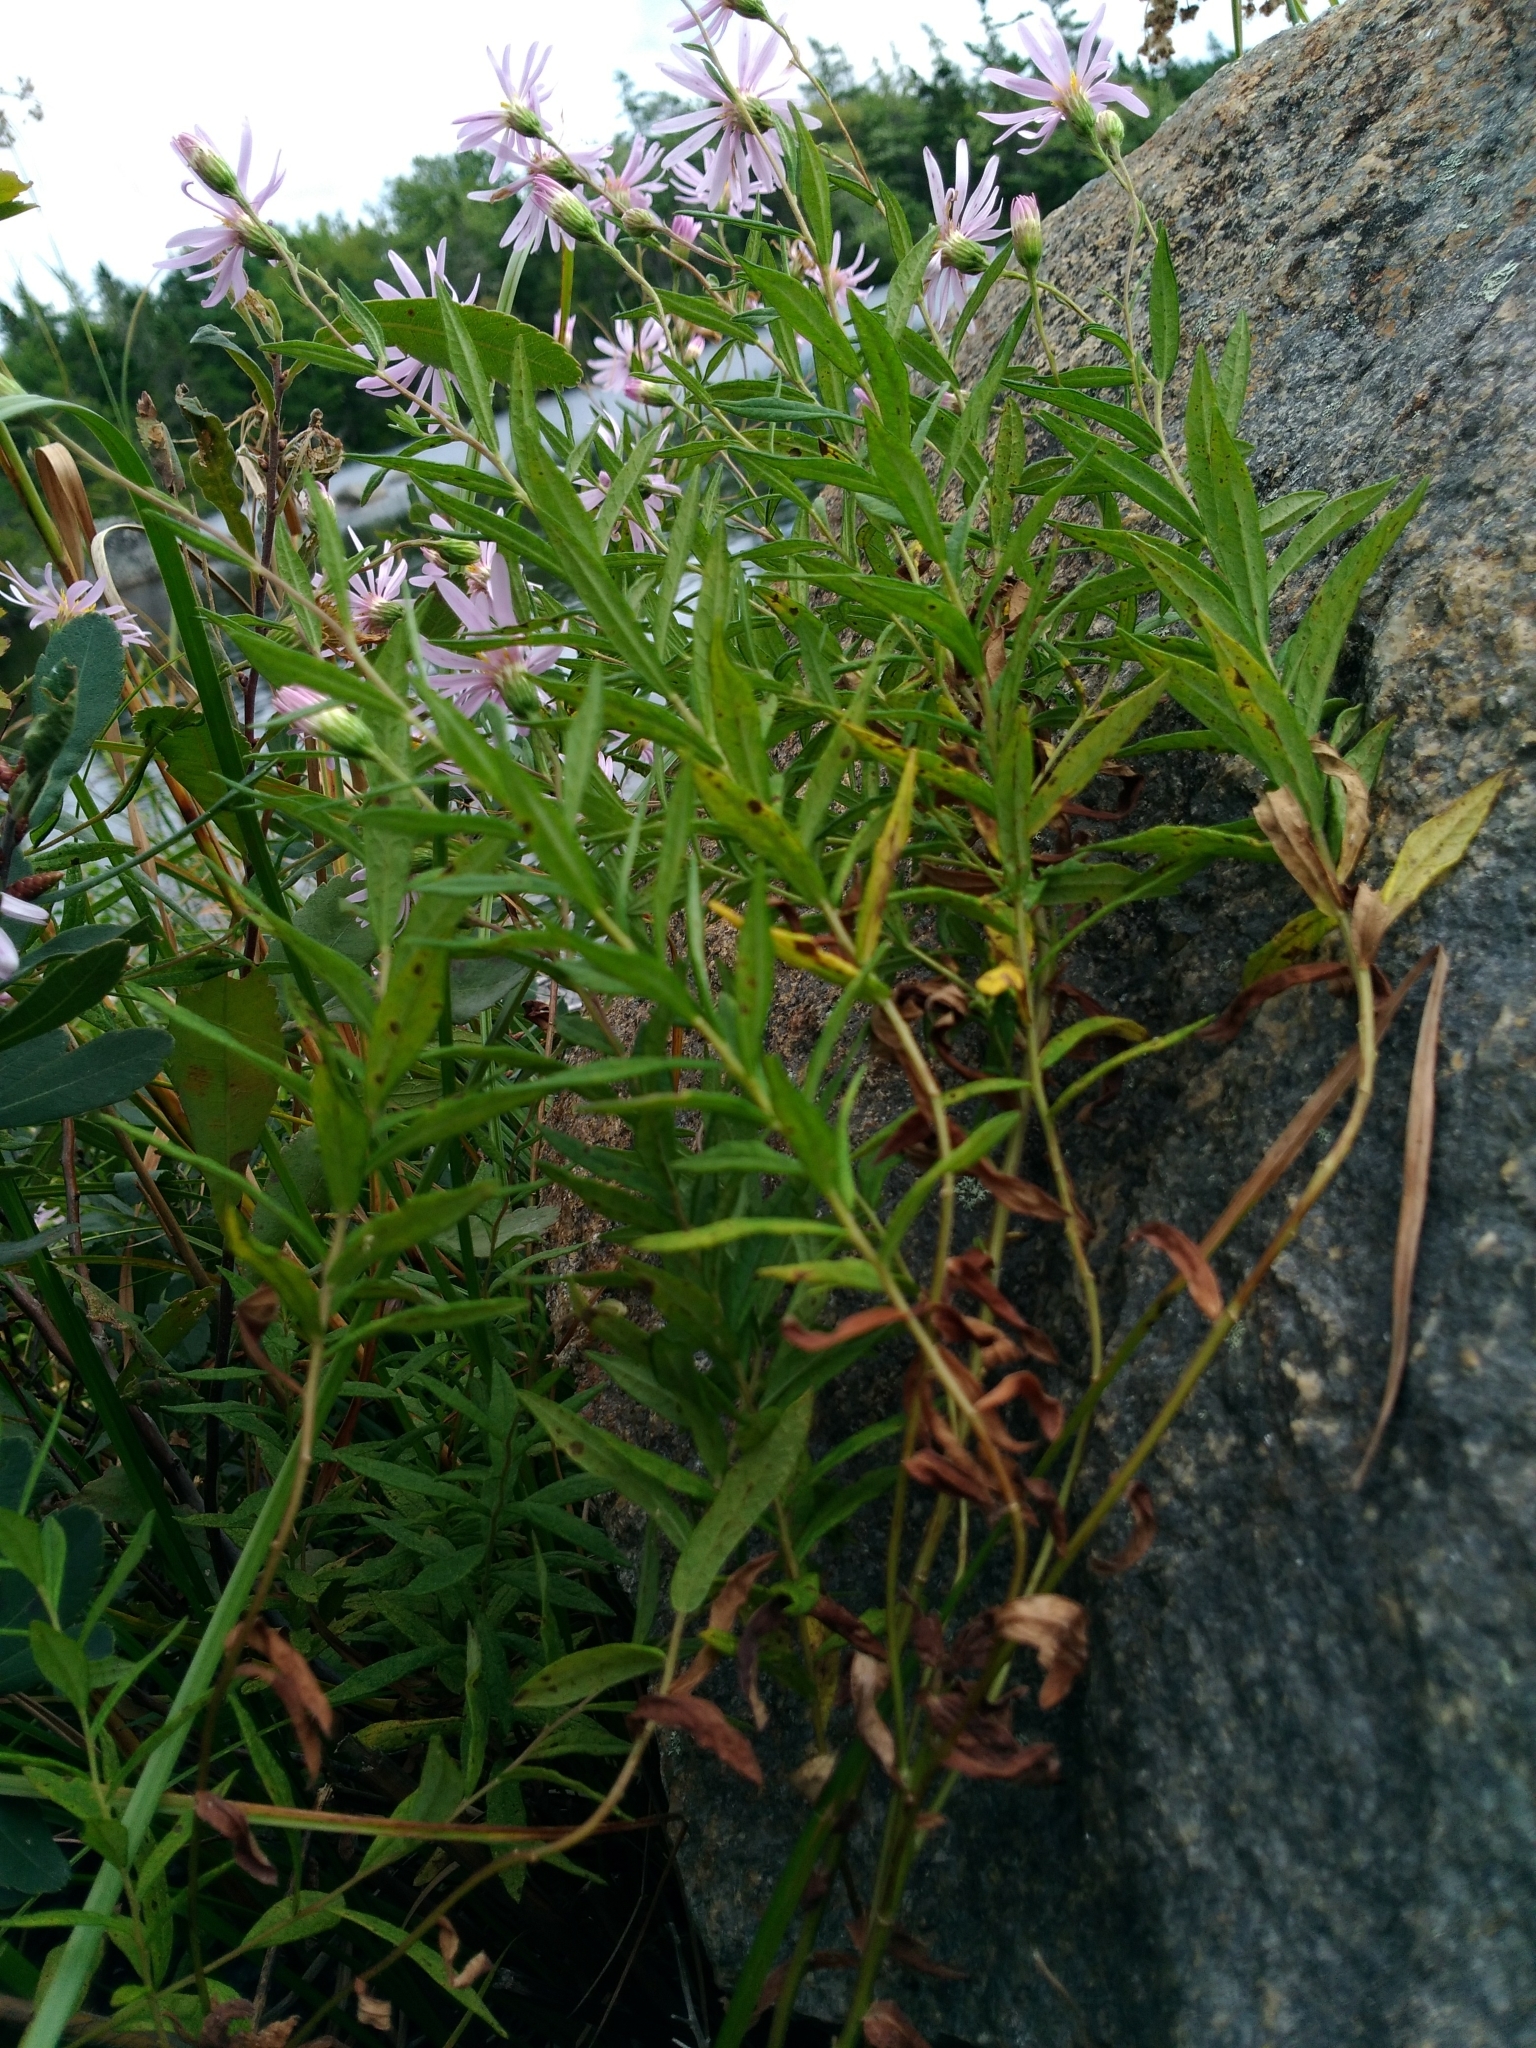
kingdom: Plantae
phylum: Tracheophyta
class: Magnoliopsida
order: Asterales
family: Asteraceae
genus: Oclemena
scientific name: Oclemena nemoralis
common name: Bog aster
